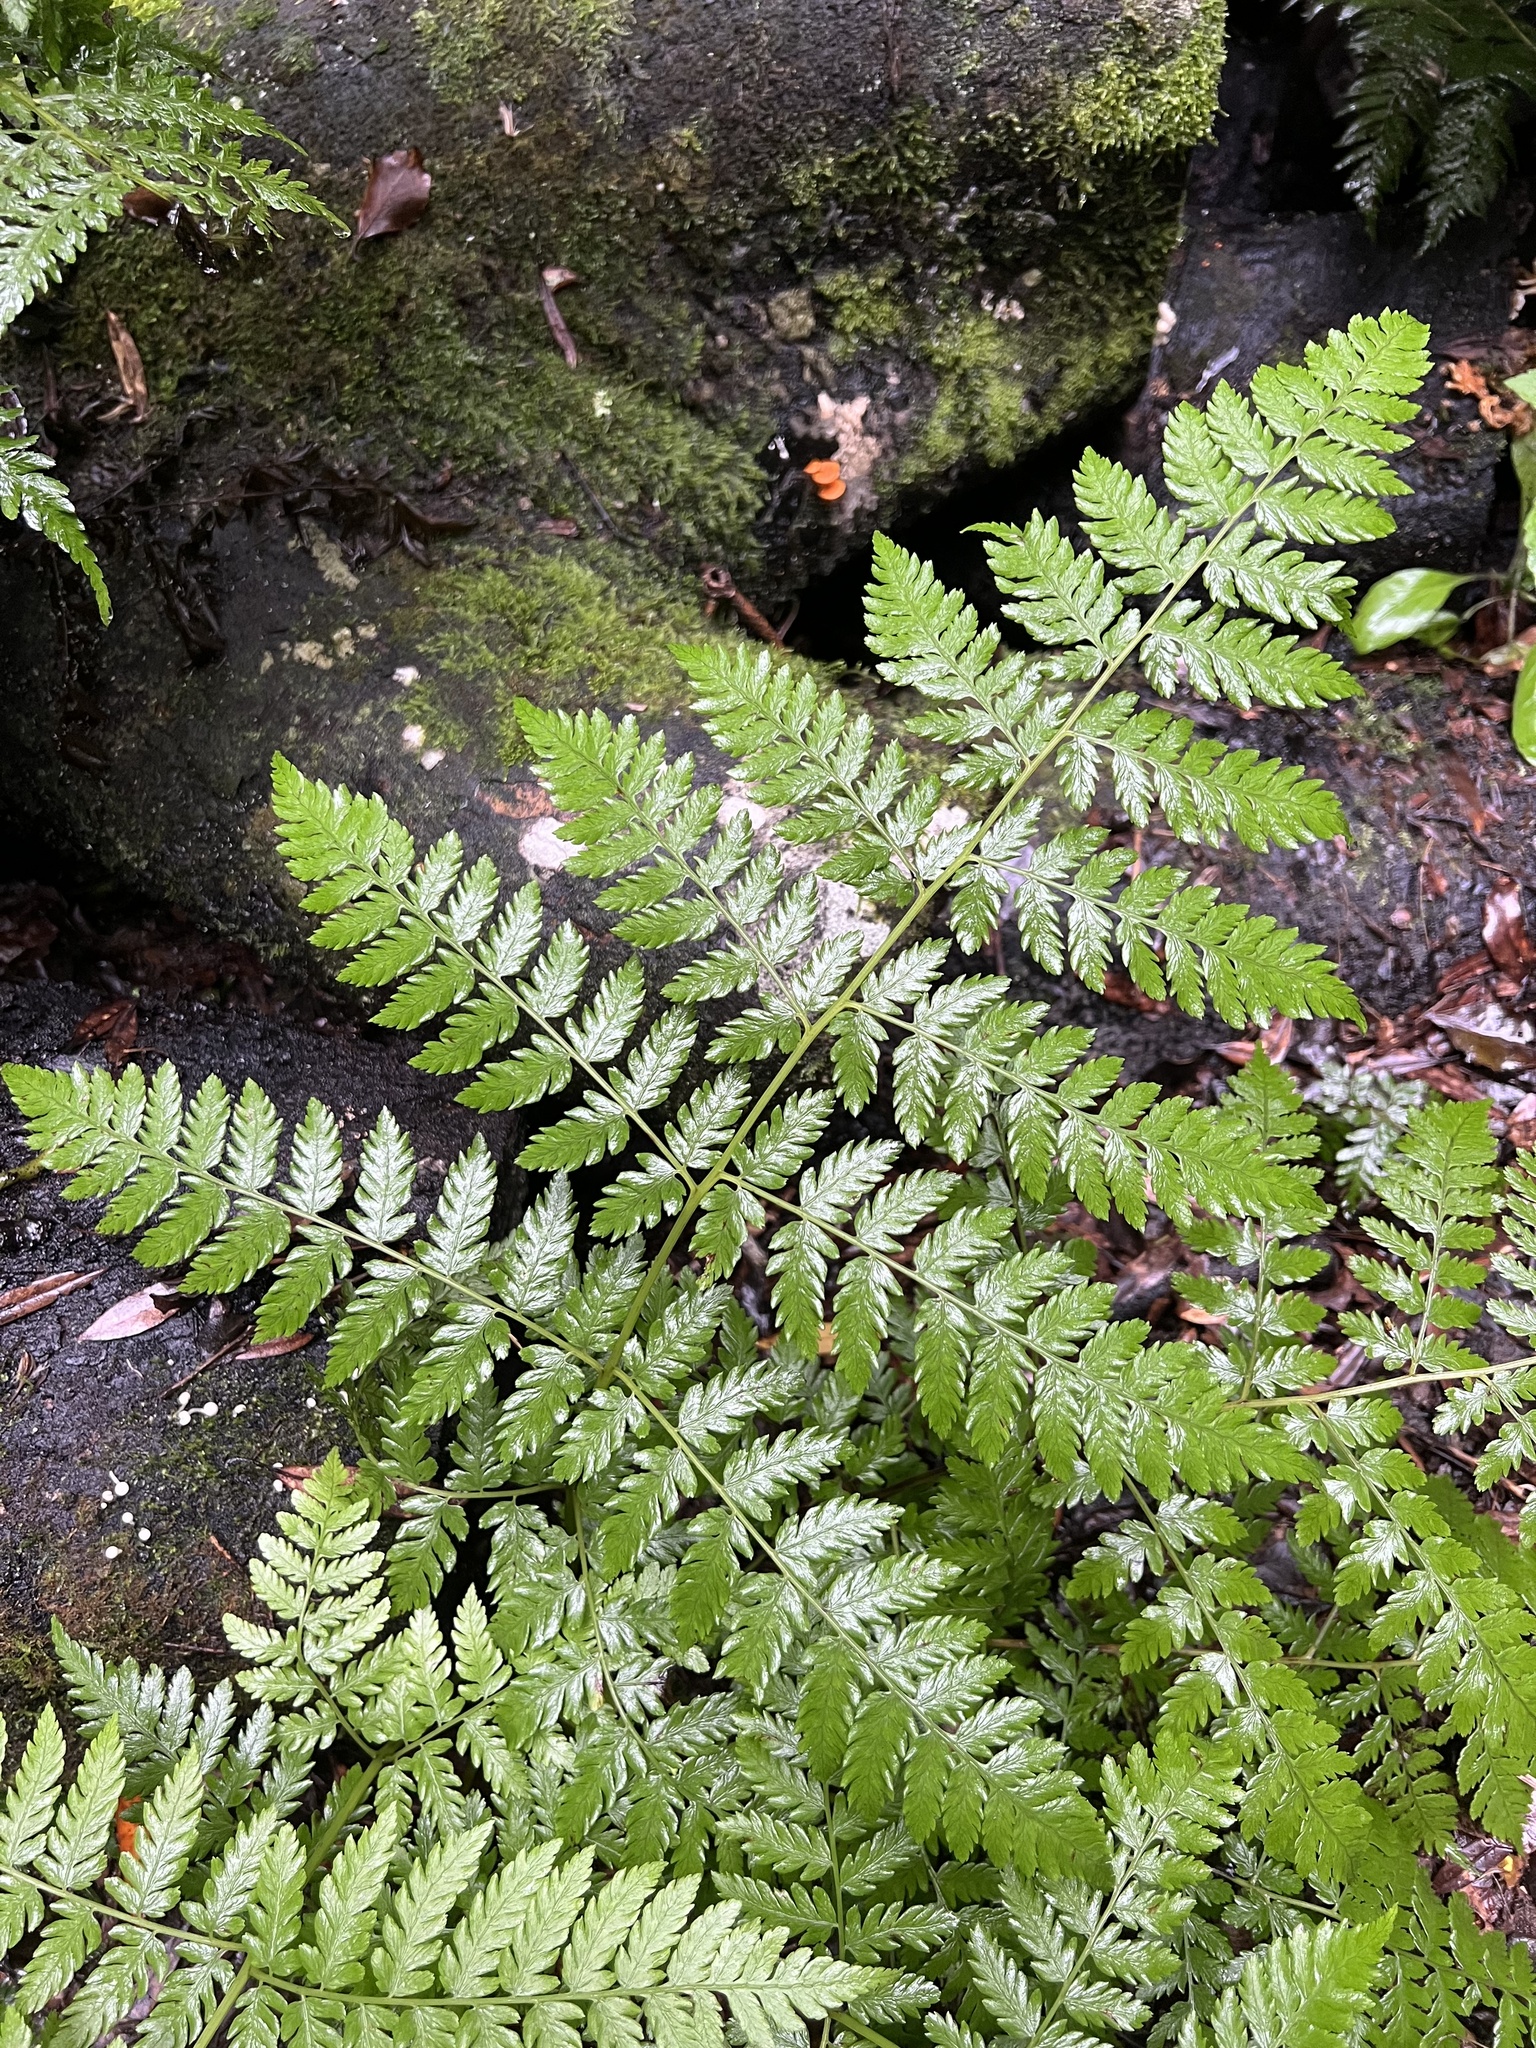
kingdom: Plantae
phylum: Tracheophyta
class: Polypodiopsida
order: Polypodiales
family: Athyriaceae
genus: Diplazium
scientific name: Diplazium australe
